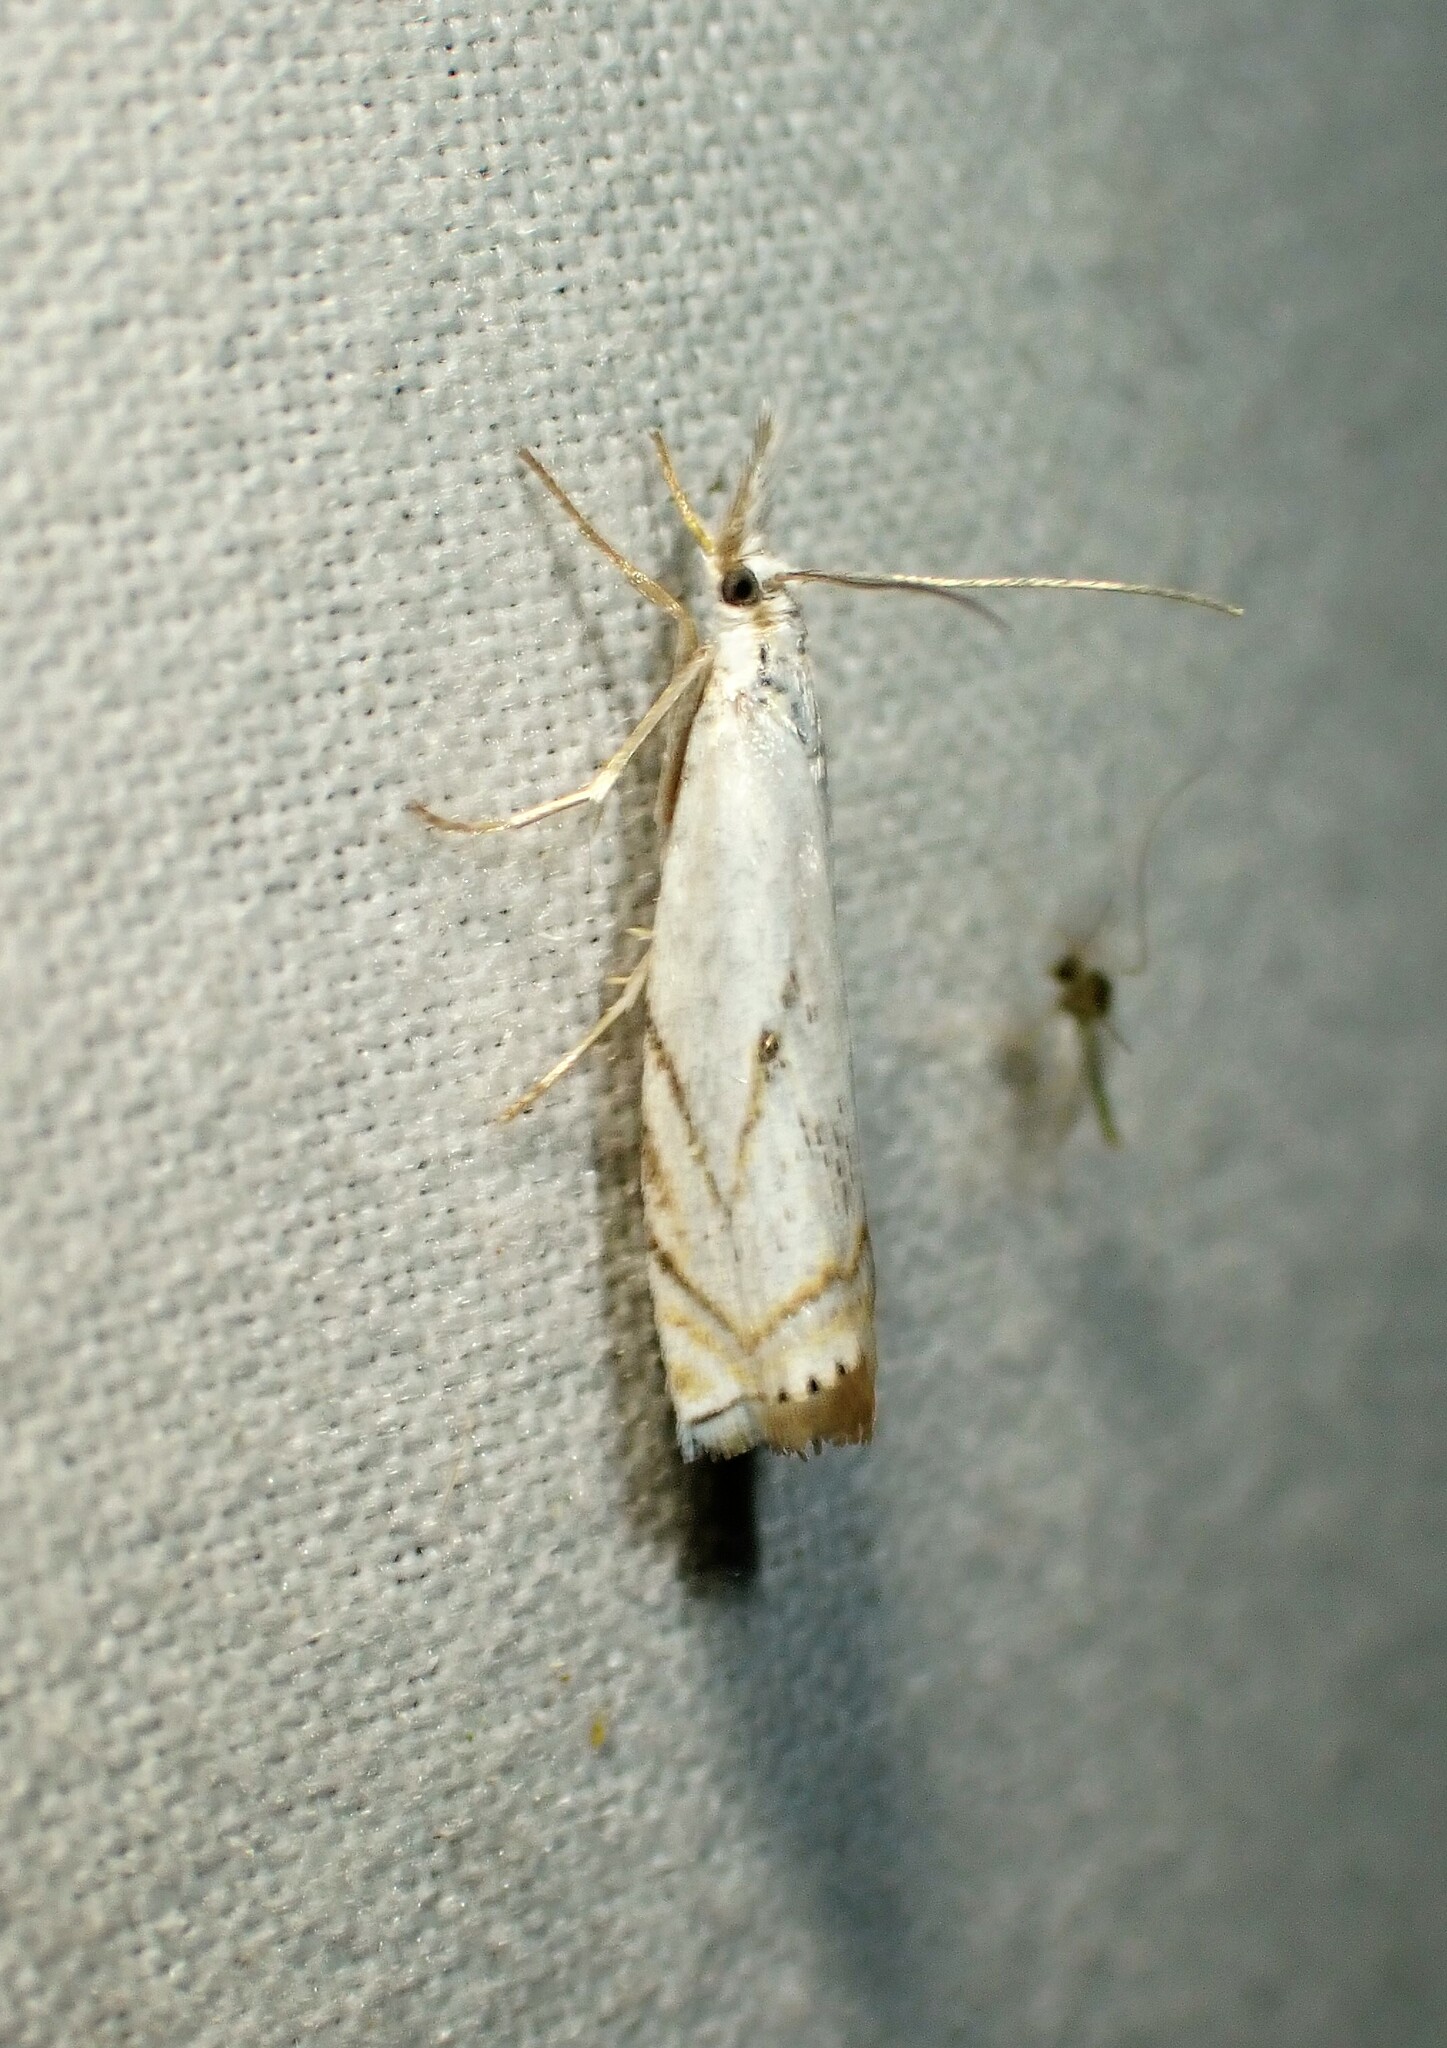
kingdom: Animalia
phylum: Arthropoda
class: Insecta
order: Lepidoptera
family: Crambidae
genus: Crambus
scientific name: Crambus albellus
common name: Small white grass-veneer
